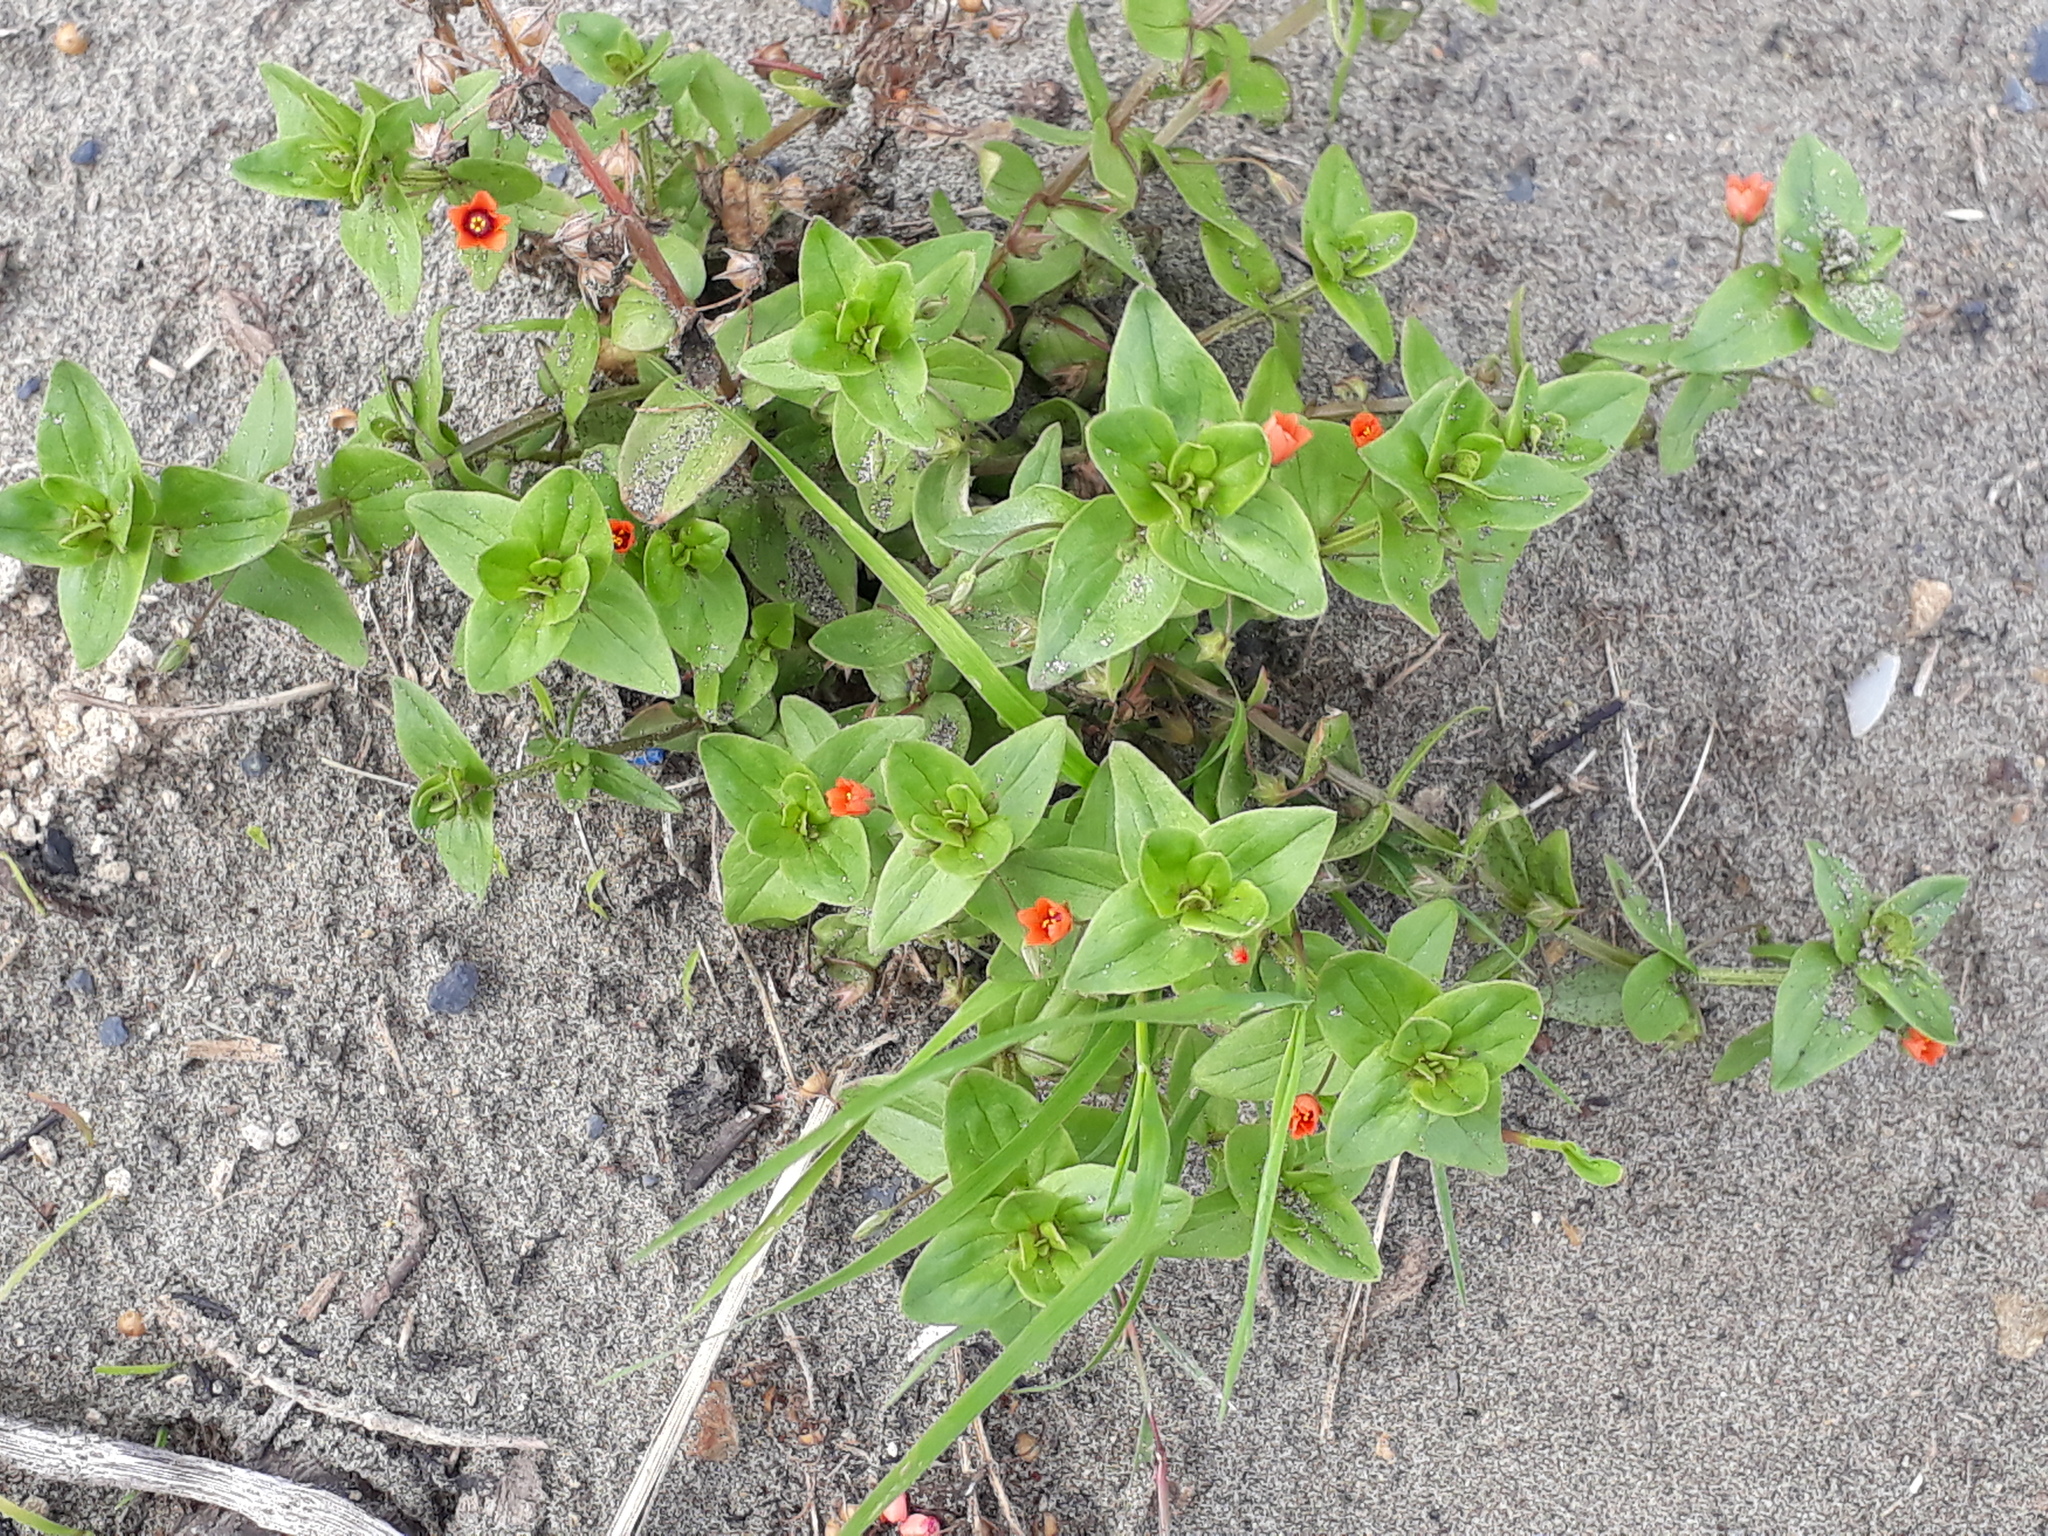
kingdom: Plantae
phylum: Tracheophyta
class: Magnoliopsida
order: Ericales
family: Primulaceae
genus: Lysimachia
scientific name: Lysimachia arvensis
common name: Scarlet pimpernel
